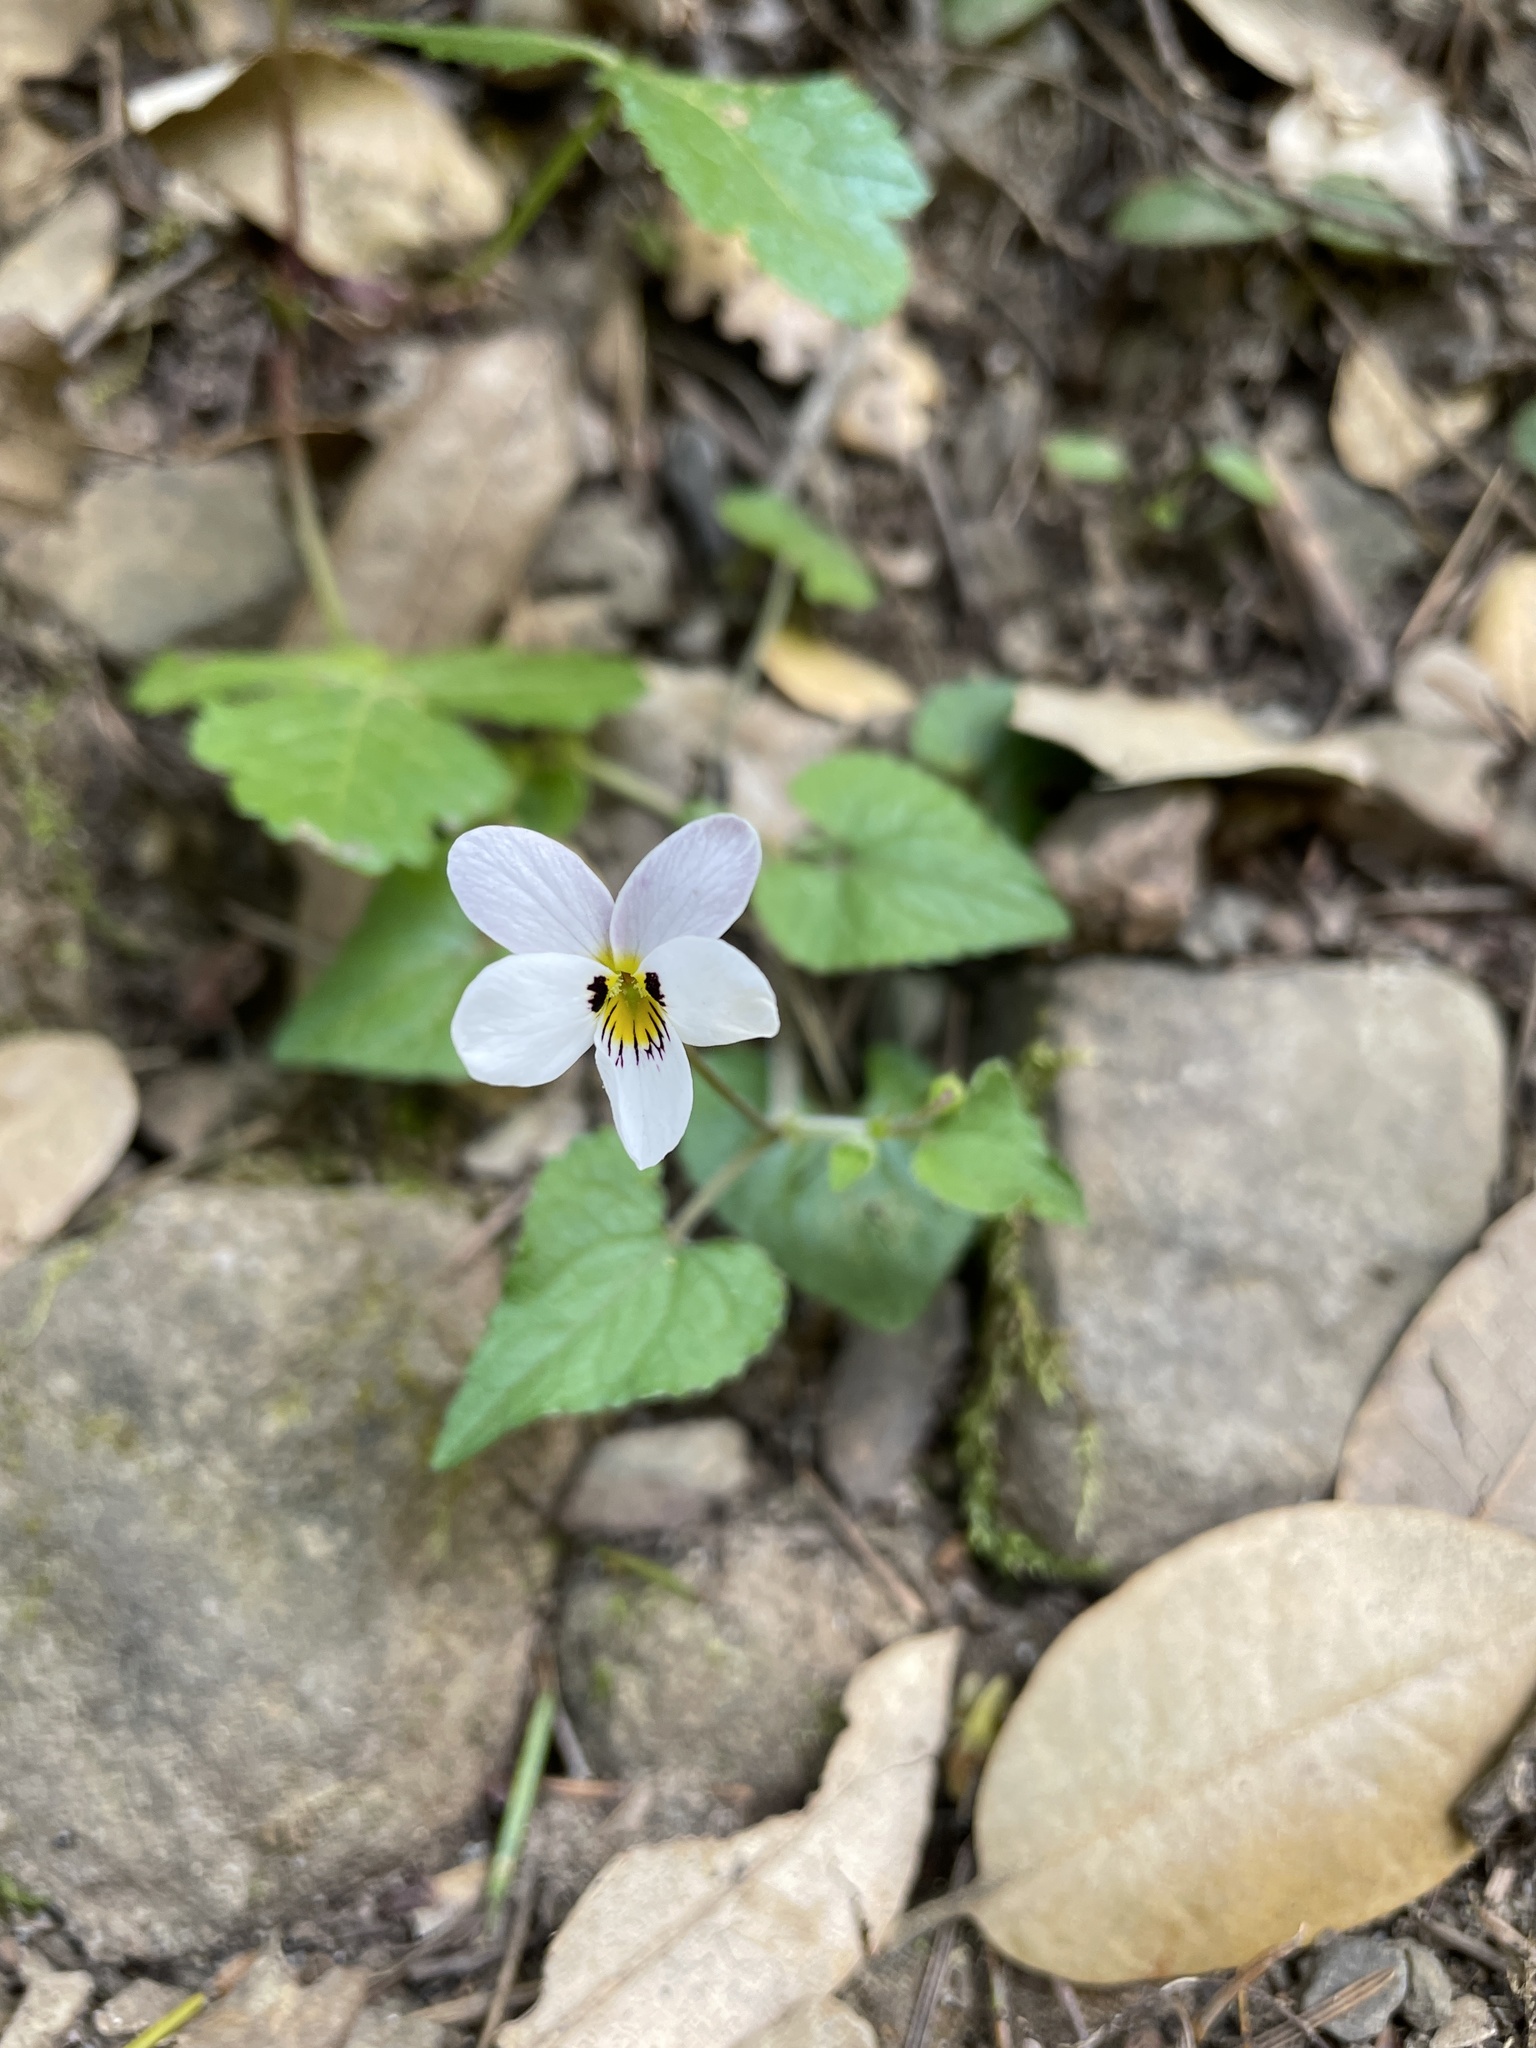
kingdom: Plantae
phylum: Tracheophyta
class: Magnoliopsida
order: Malpighiales
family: Violaceae
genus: Viola
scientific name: Viola ocellata
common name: Western heart's ease
